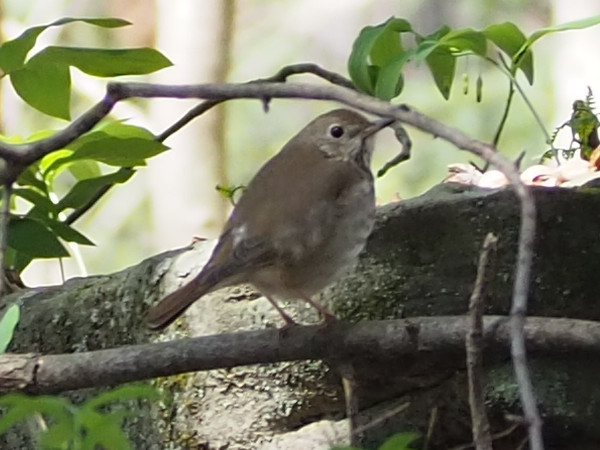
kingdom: Animalia
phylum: Chordata
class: Aves
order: Passeriformes
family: Turdidae
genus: Catharus
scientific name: Catharus guttatus
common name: Hermit thrush
